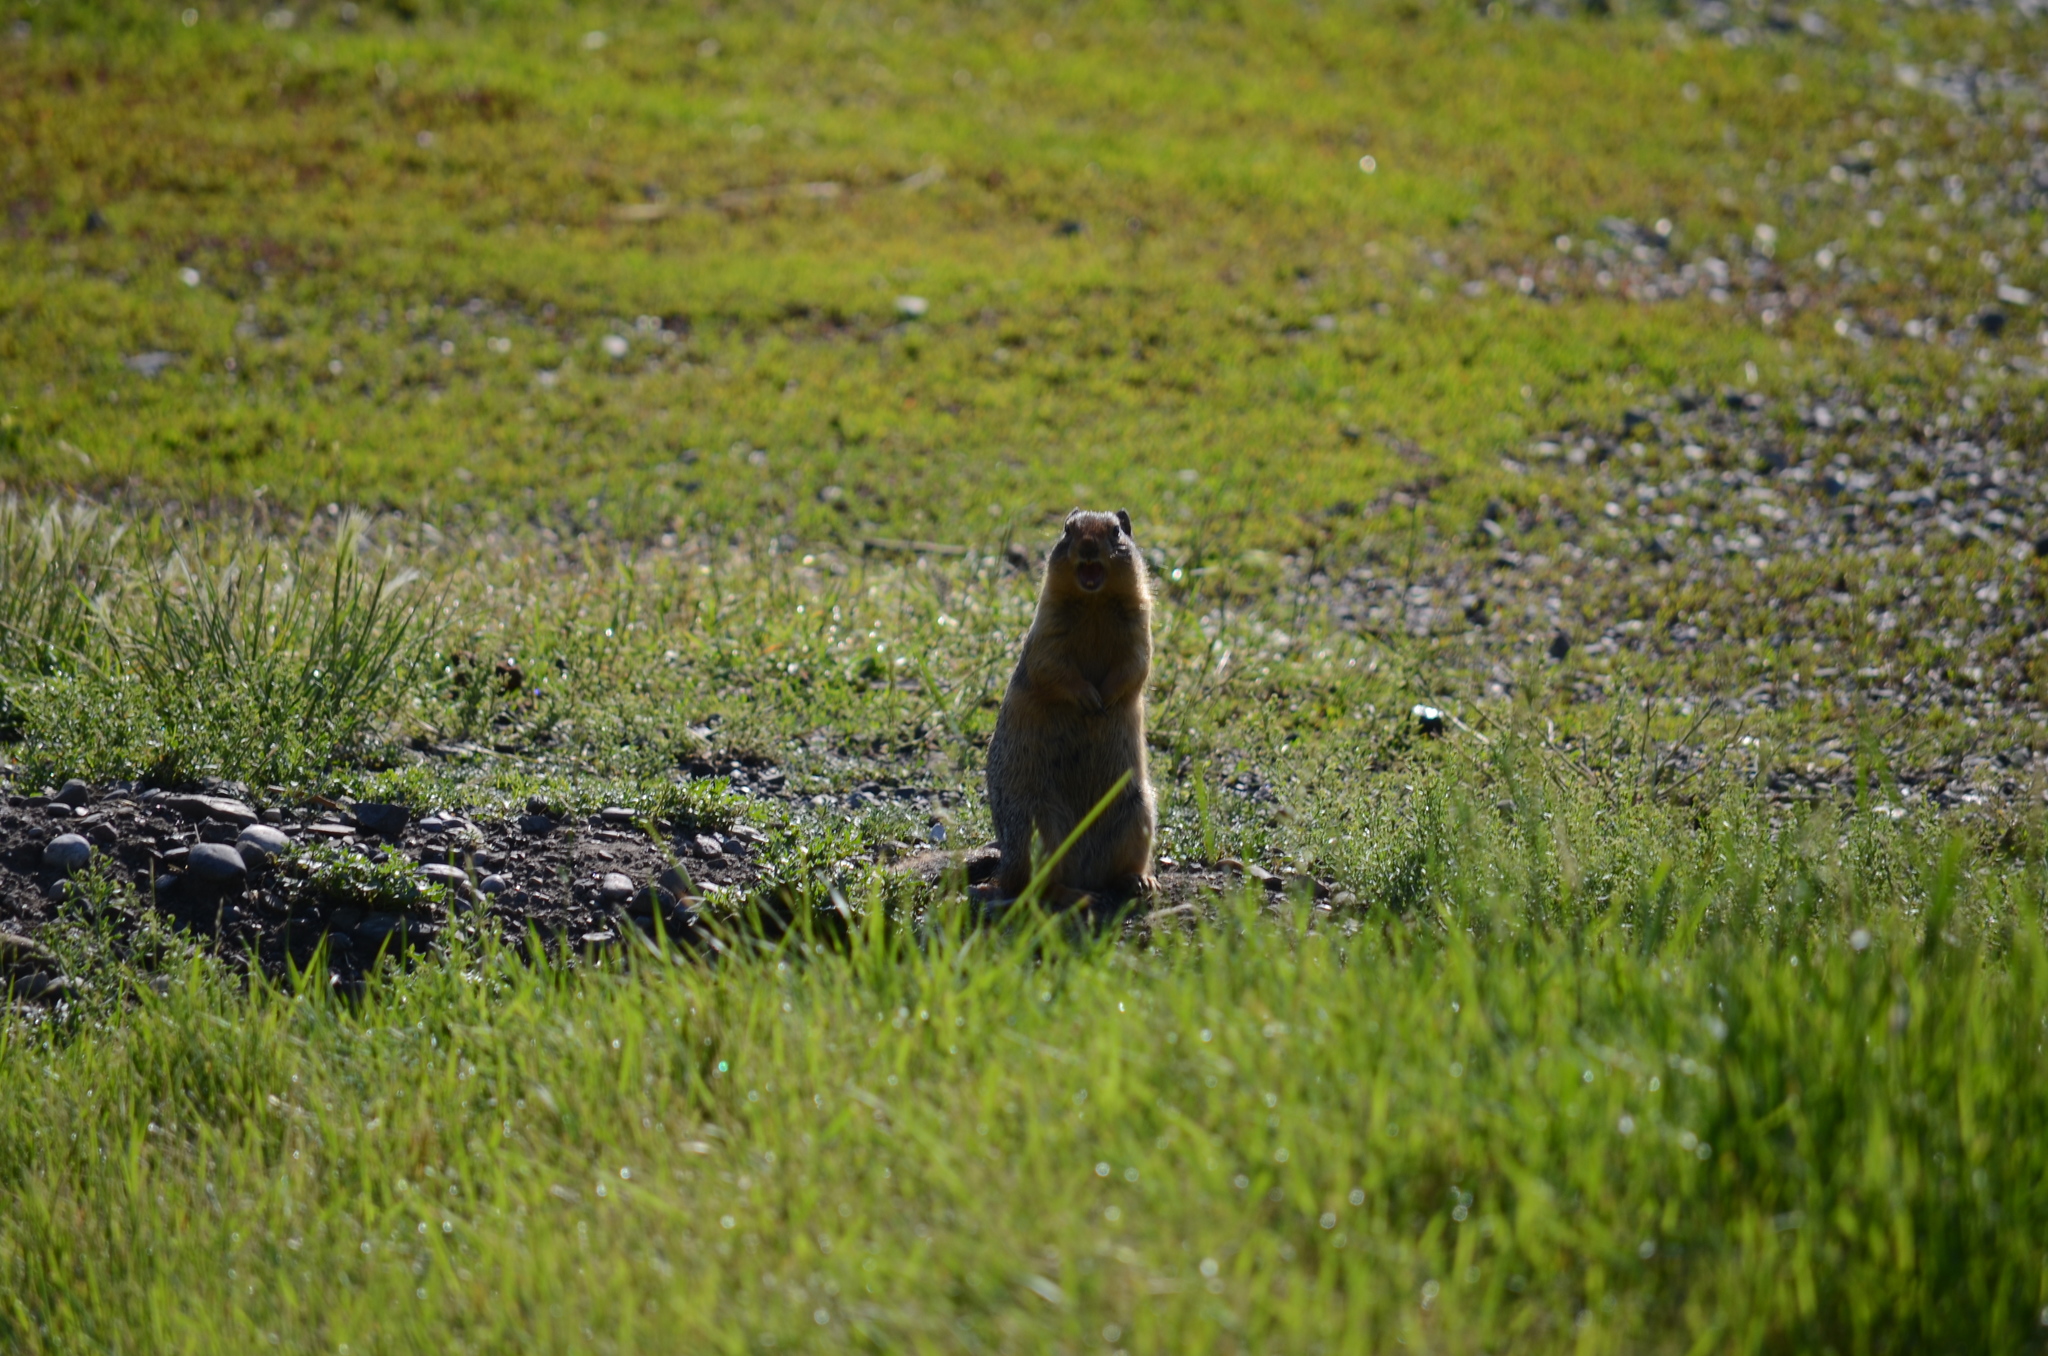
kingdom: Animalia
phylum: Chordata
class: Mammalia
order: Rodentia
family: Sciuridae
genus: Urocitellus
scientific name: Urocitellus columbianus
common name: Columbian ground squirrel
